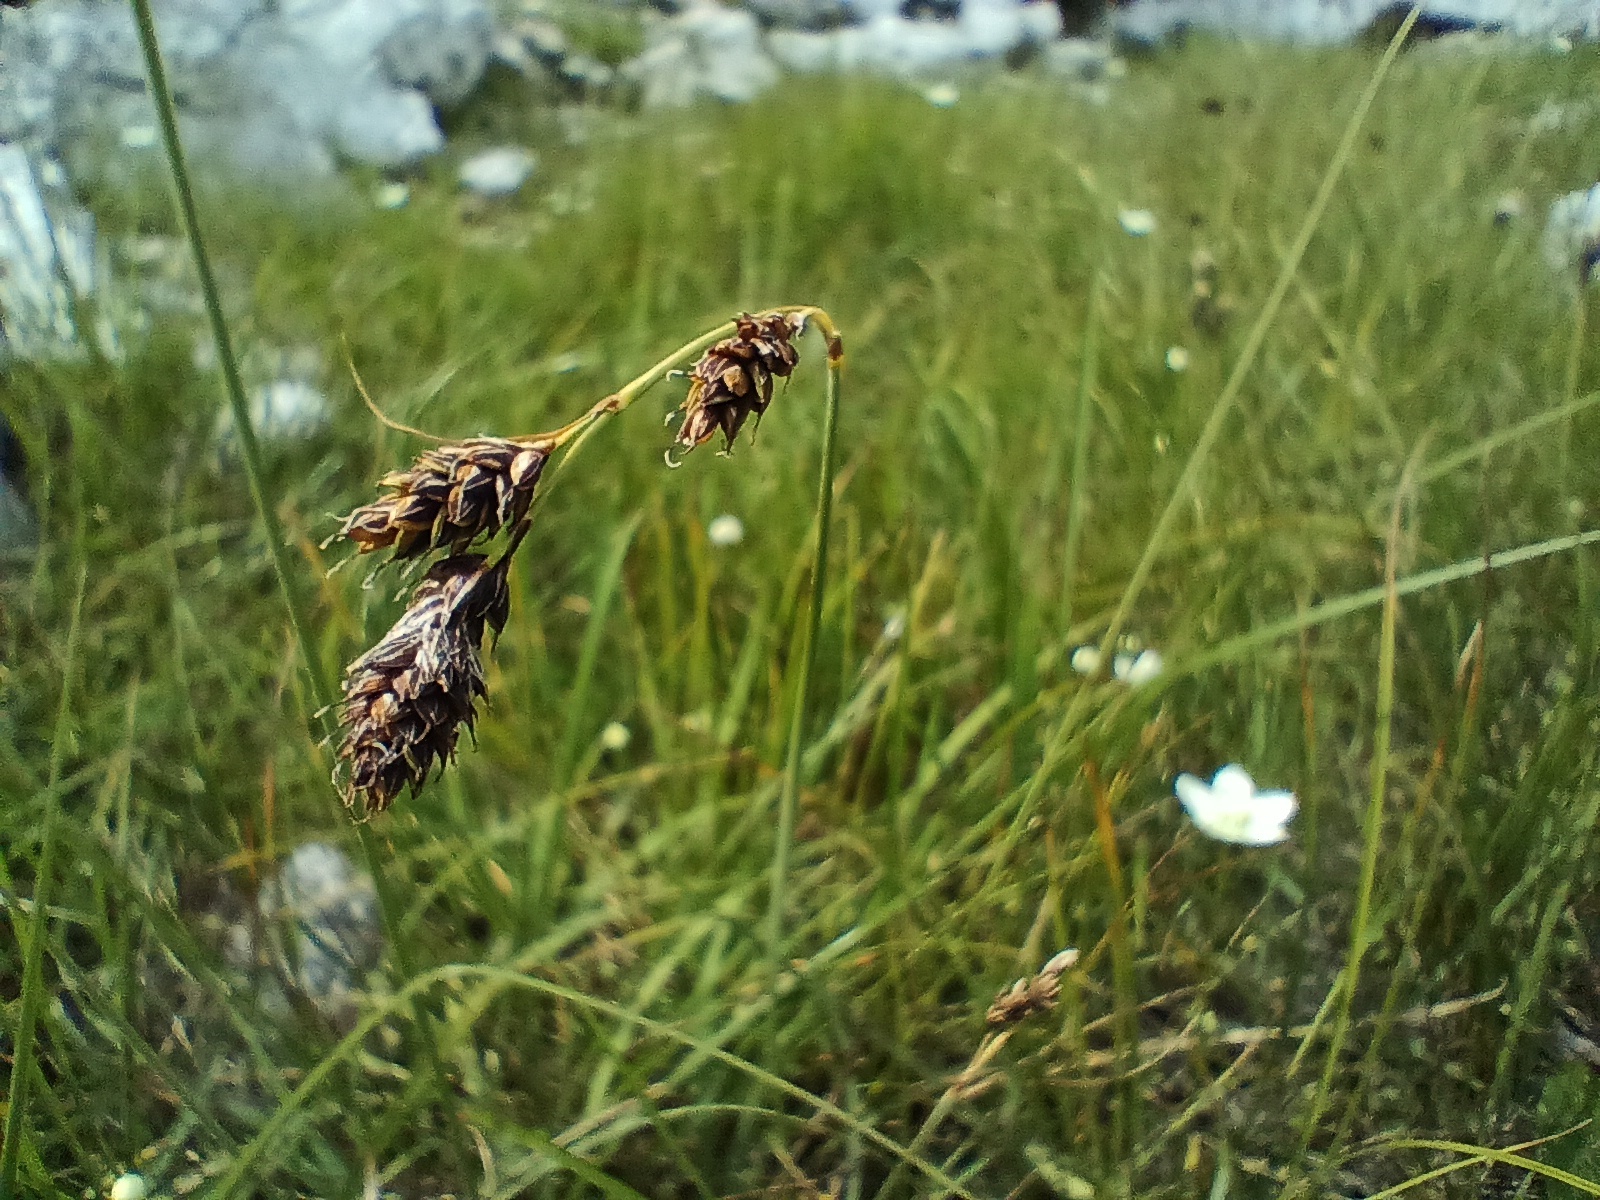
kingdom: Plantae
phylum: Tracheophyta
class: Liliopsida
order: Poales
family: Cyperaceae
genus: Carex
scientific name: Carex atrata
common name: Black alpine sedge
